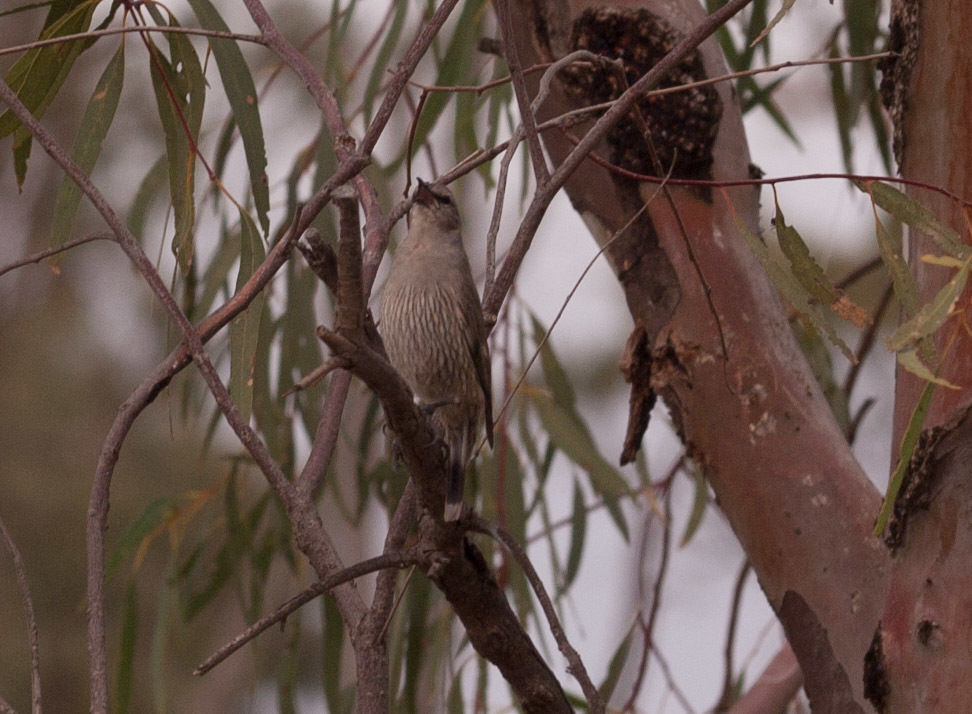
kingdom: Animalia
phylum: Chordata
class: Aves
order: Passeriformes
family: Climacteridae
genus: Climacteris
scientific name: Climacteris picumnus
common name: Brown treecreeper
